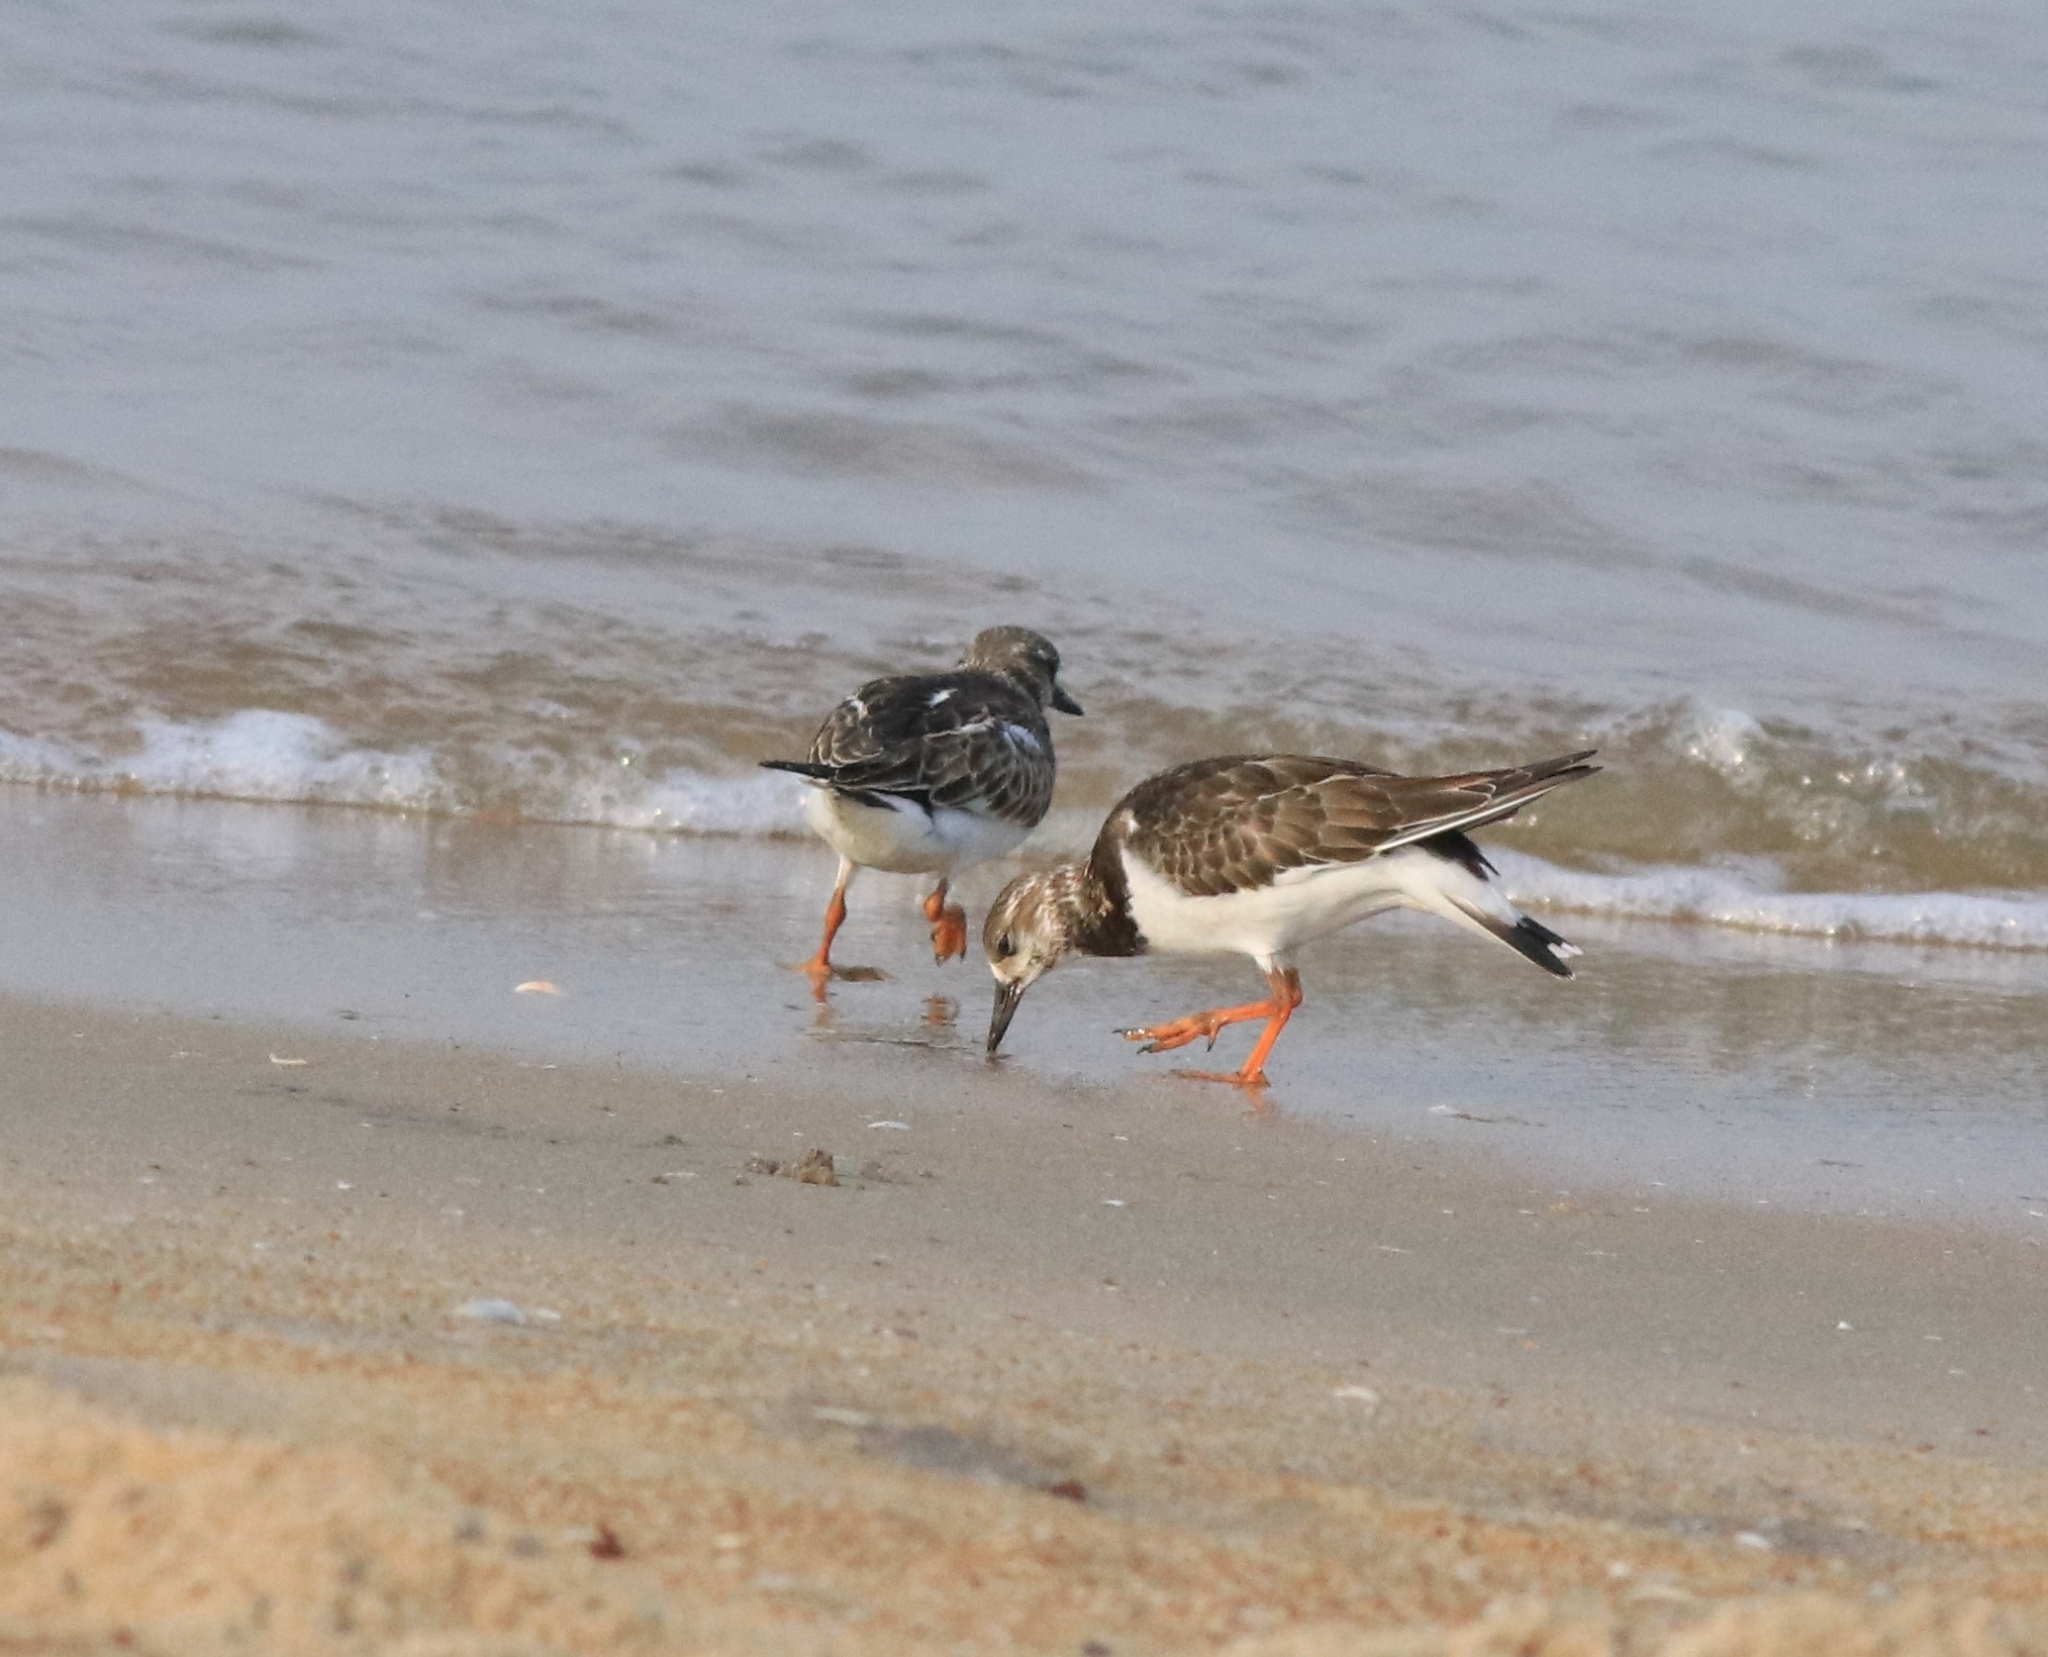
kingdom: Animalia
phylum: Chordata
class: Aves
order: Charadriiformes
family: Scolopacidae
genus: Arenaria
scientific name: Arenaria interpres
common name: Ruddy turnstone
